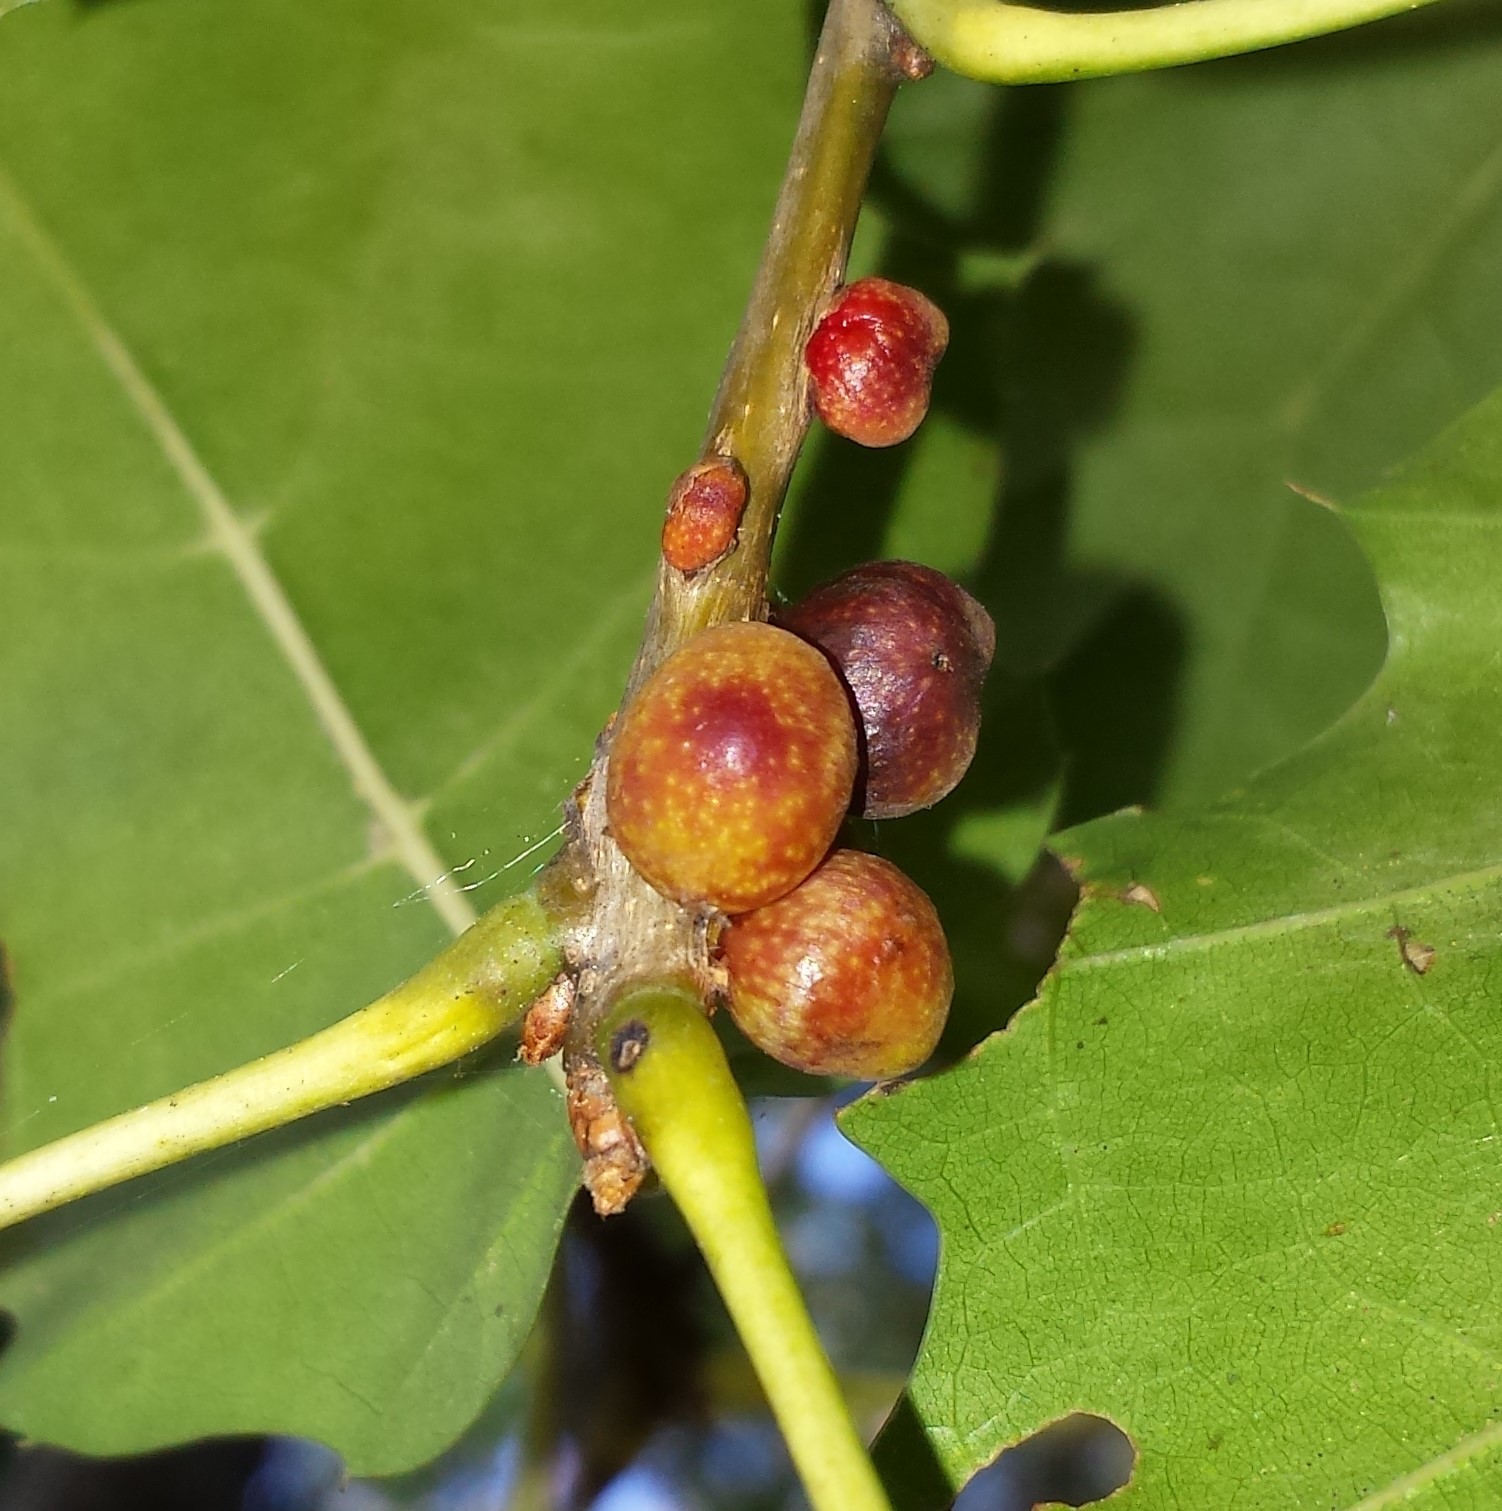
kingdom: Animalia
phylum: Arthropoda
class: Insecta
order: Hymenoptera
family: Cynipidae
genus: Kokkocynips
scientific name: Kokkocynips imbricariae
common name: Banded bullet gall wasp
